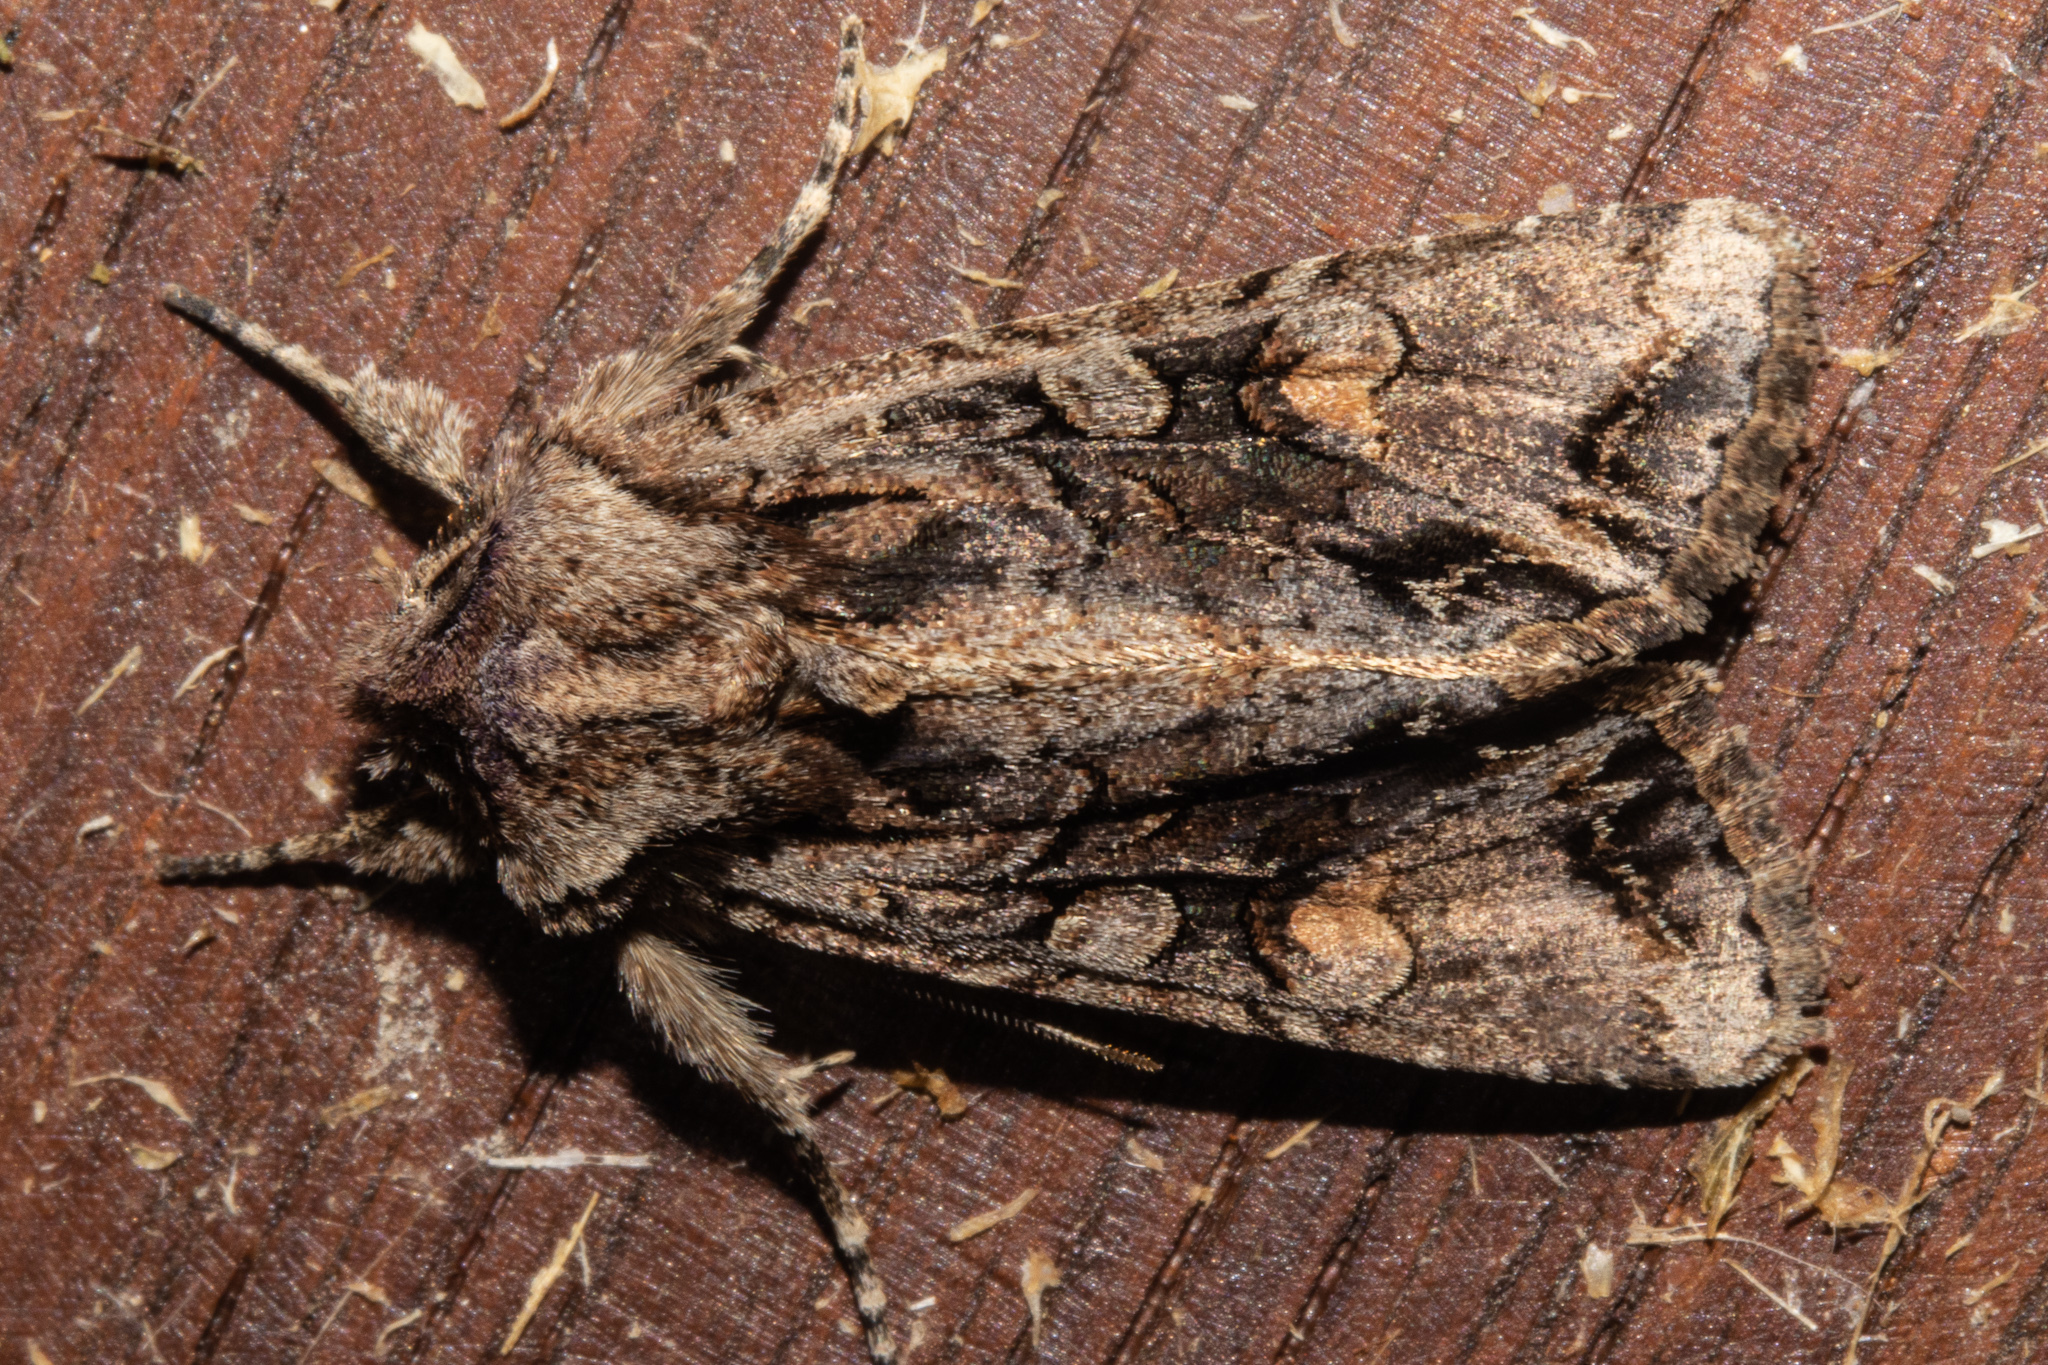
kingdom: Animalia
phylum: Arthropoda
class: Insecta
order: Lepidoptera
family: Noctuidae
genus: Ichneutica
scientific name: Ichneutica
